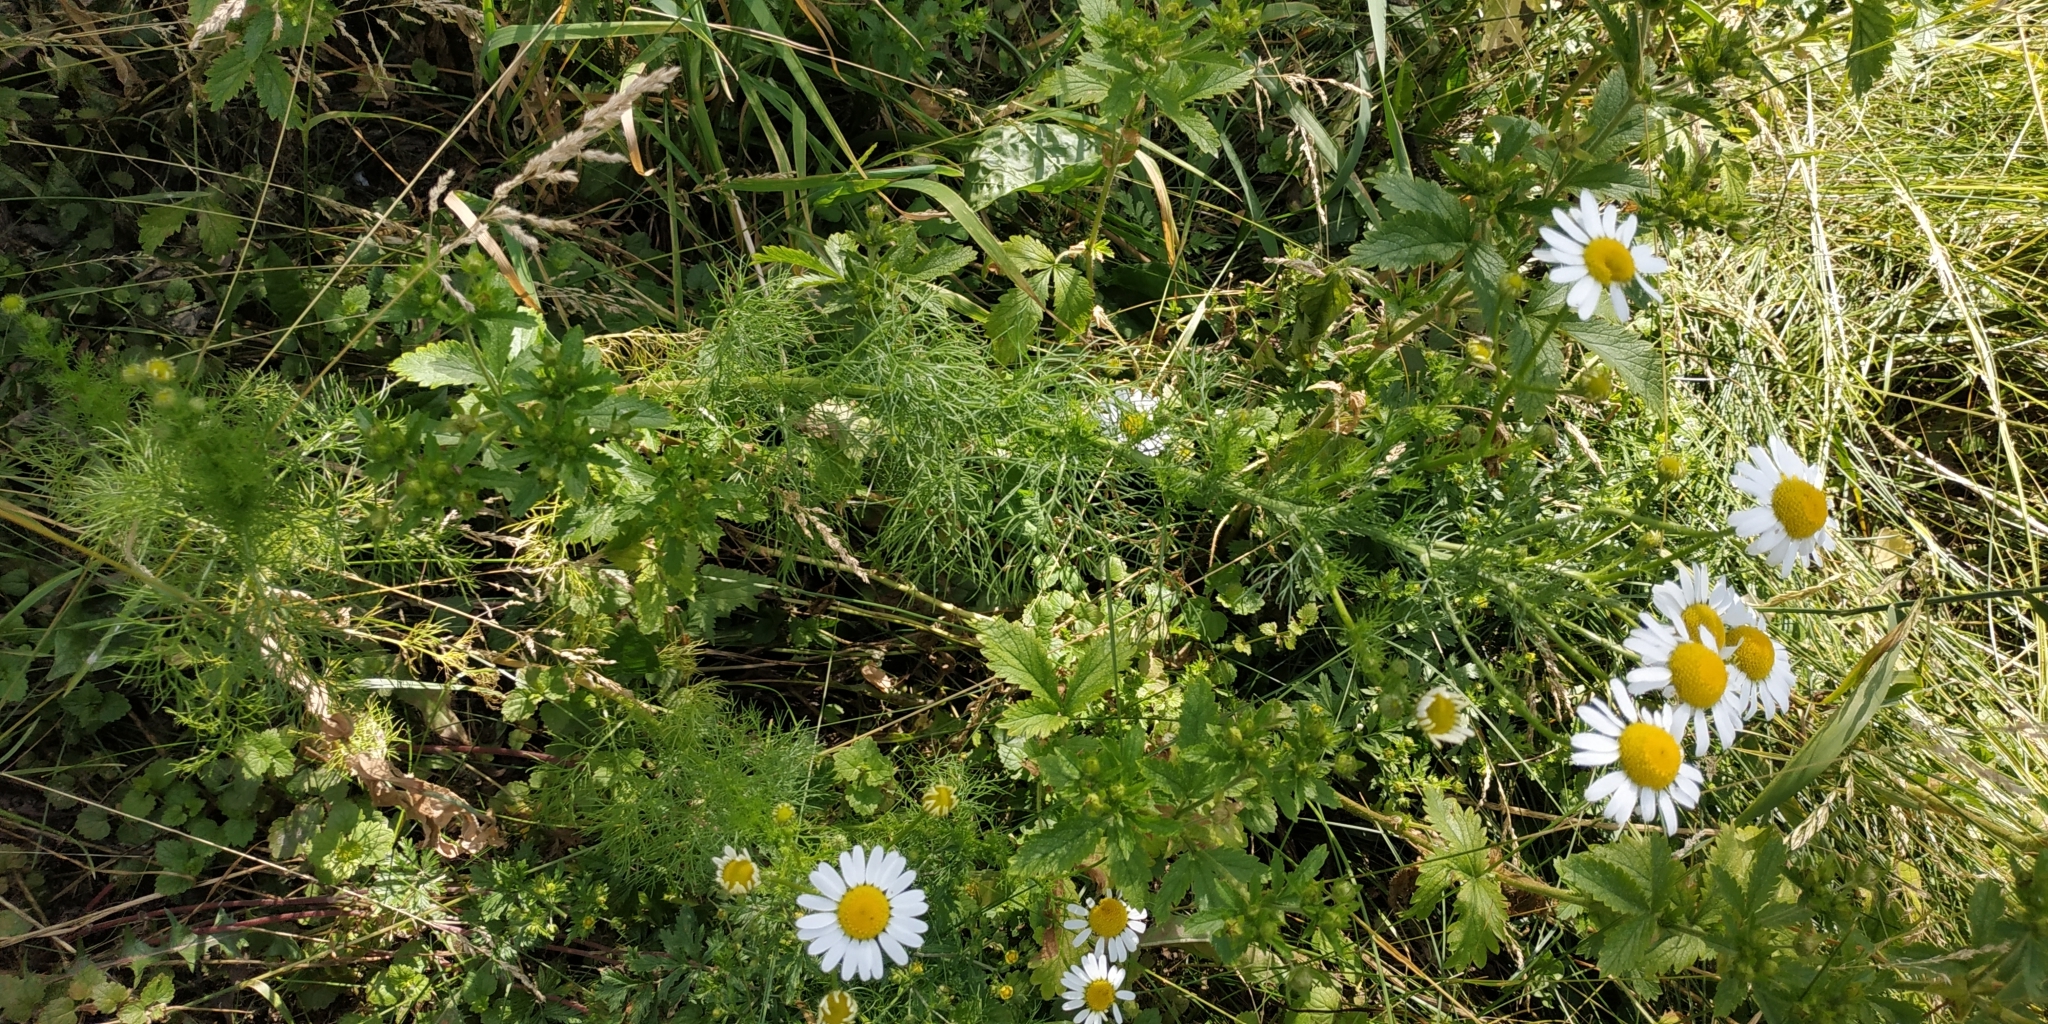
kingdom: Plantae
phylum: Tracheophyta
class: Magnoliopsida
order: Asterales
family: Asteraceae
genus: Tripleurospermum
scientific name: Tripleurospermum inodorum
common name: Scentless mayweed
